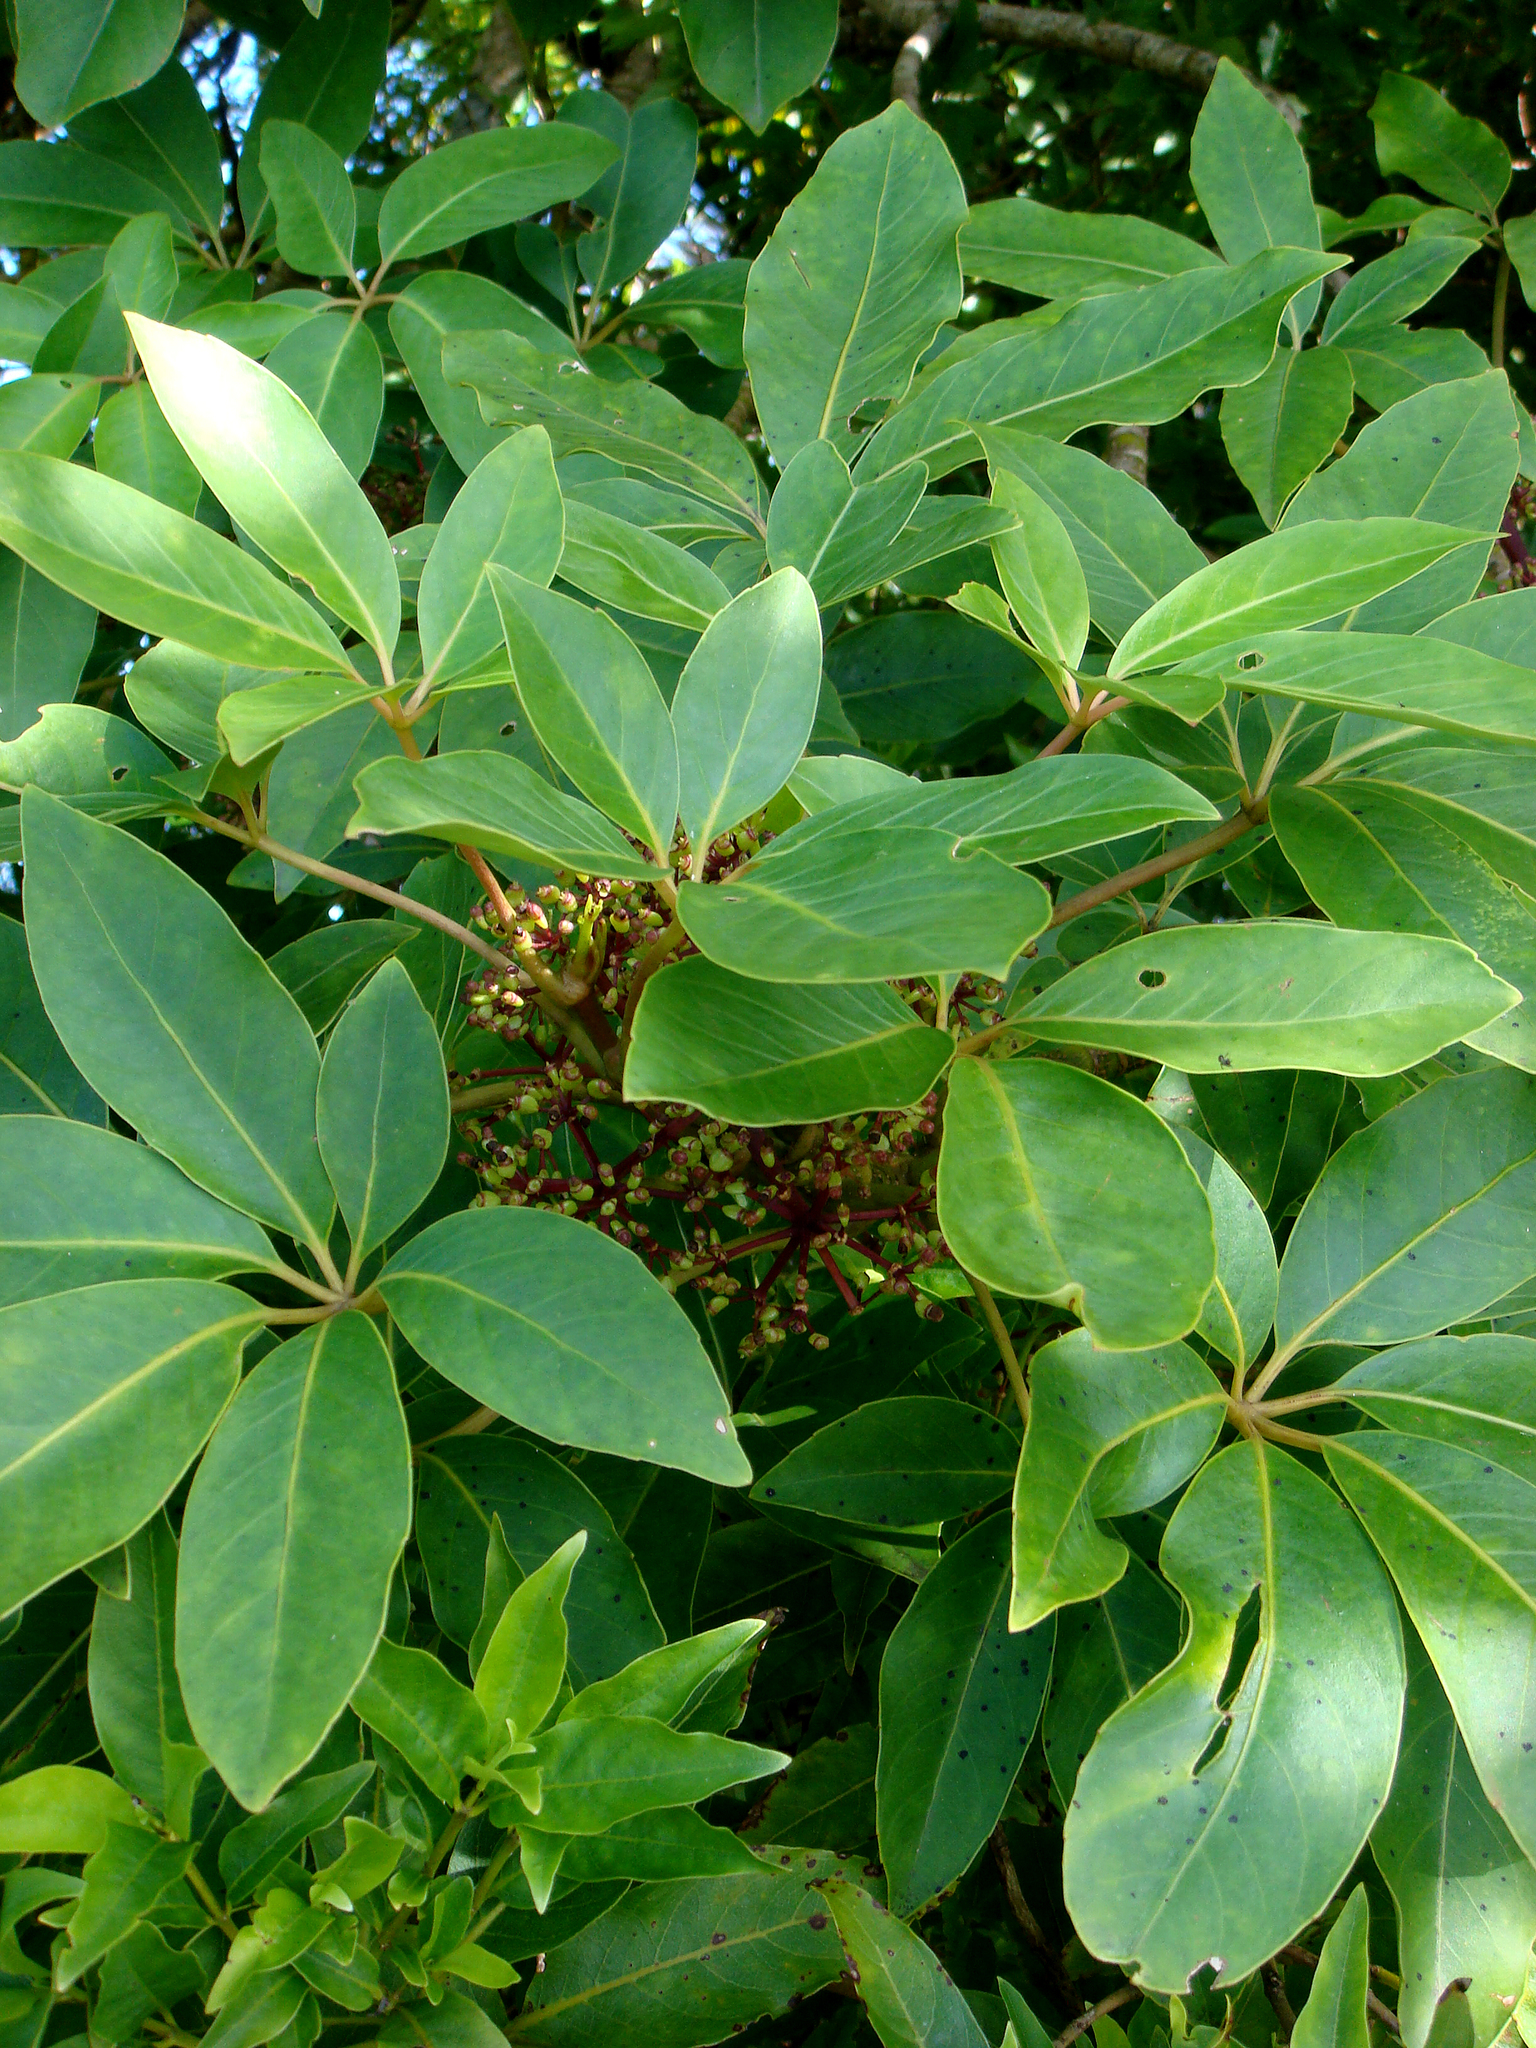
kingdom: Plantae
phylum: Tracheophyta
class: Magnoliopsida
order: Apiales
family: Araliaceae
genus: Neopanax
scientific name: Neopanax kermadecense
